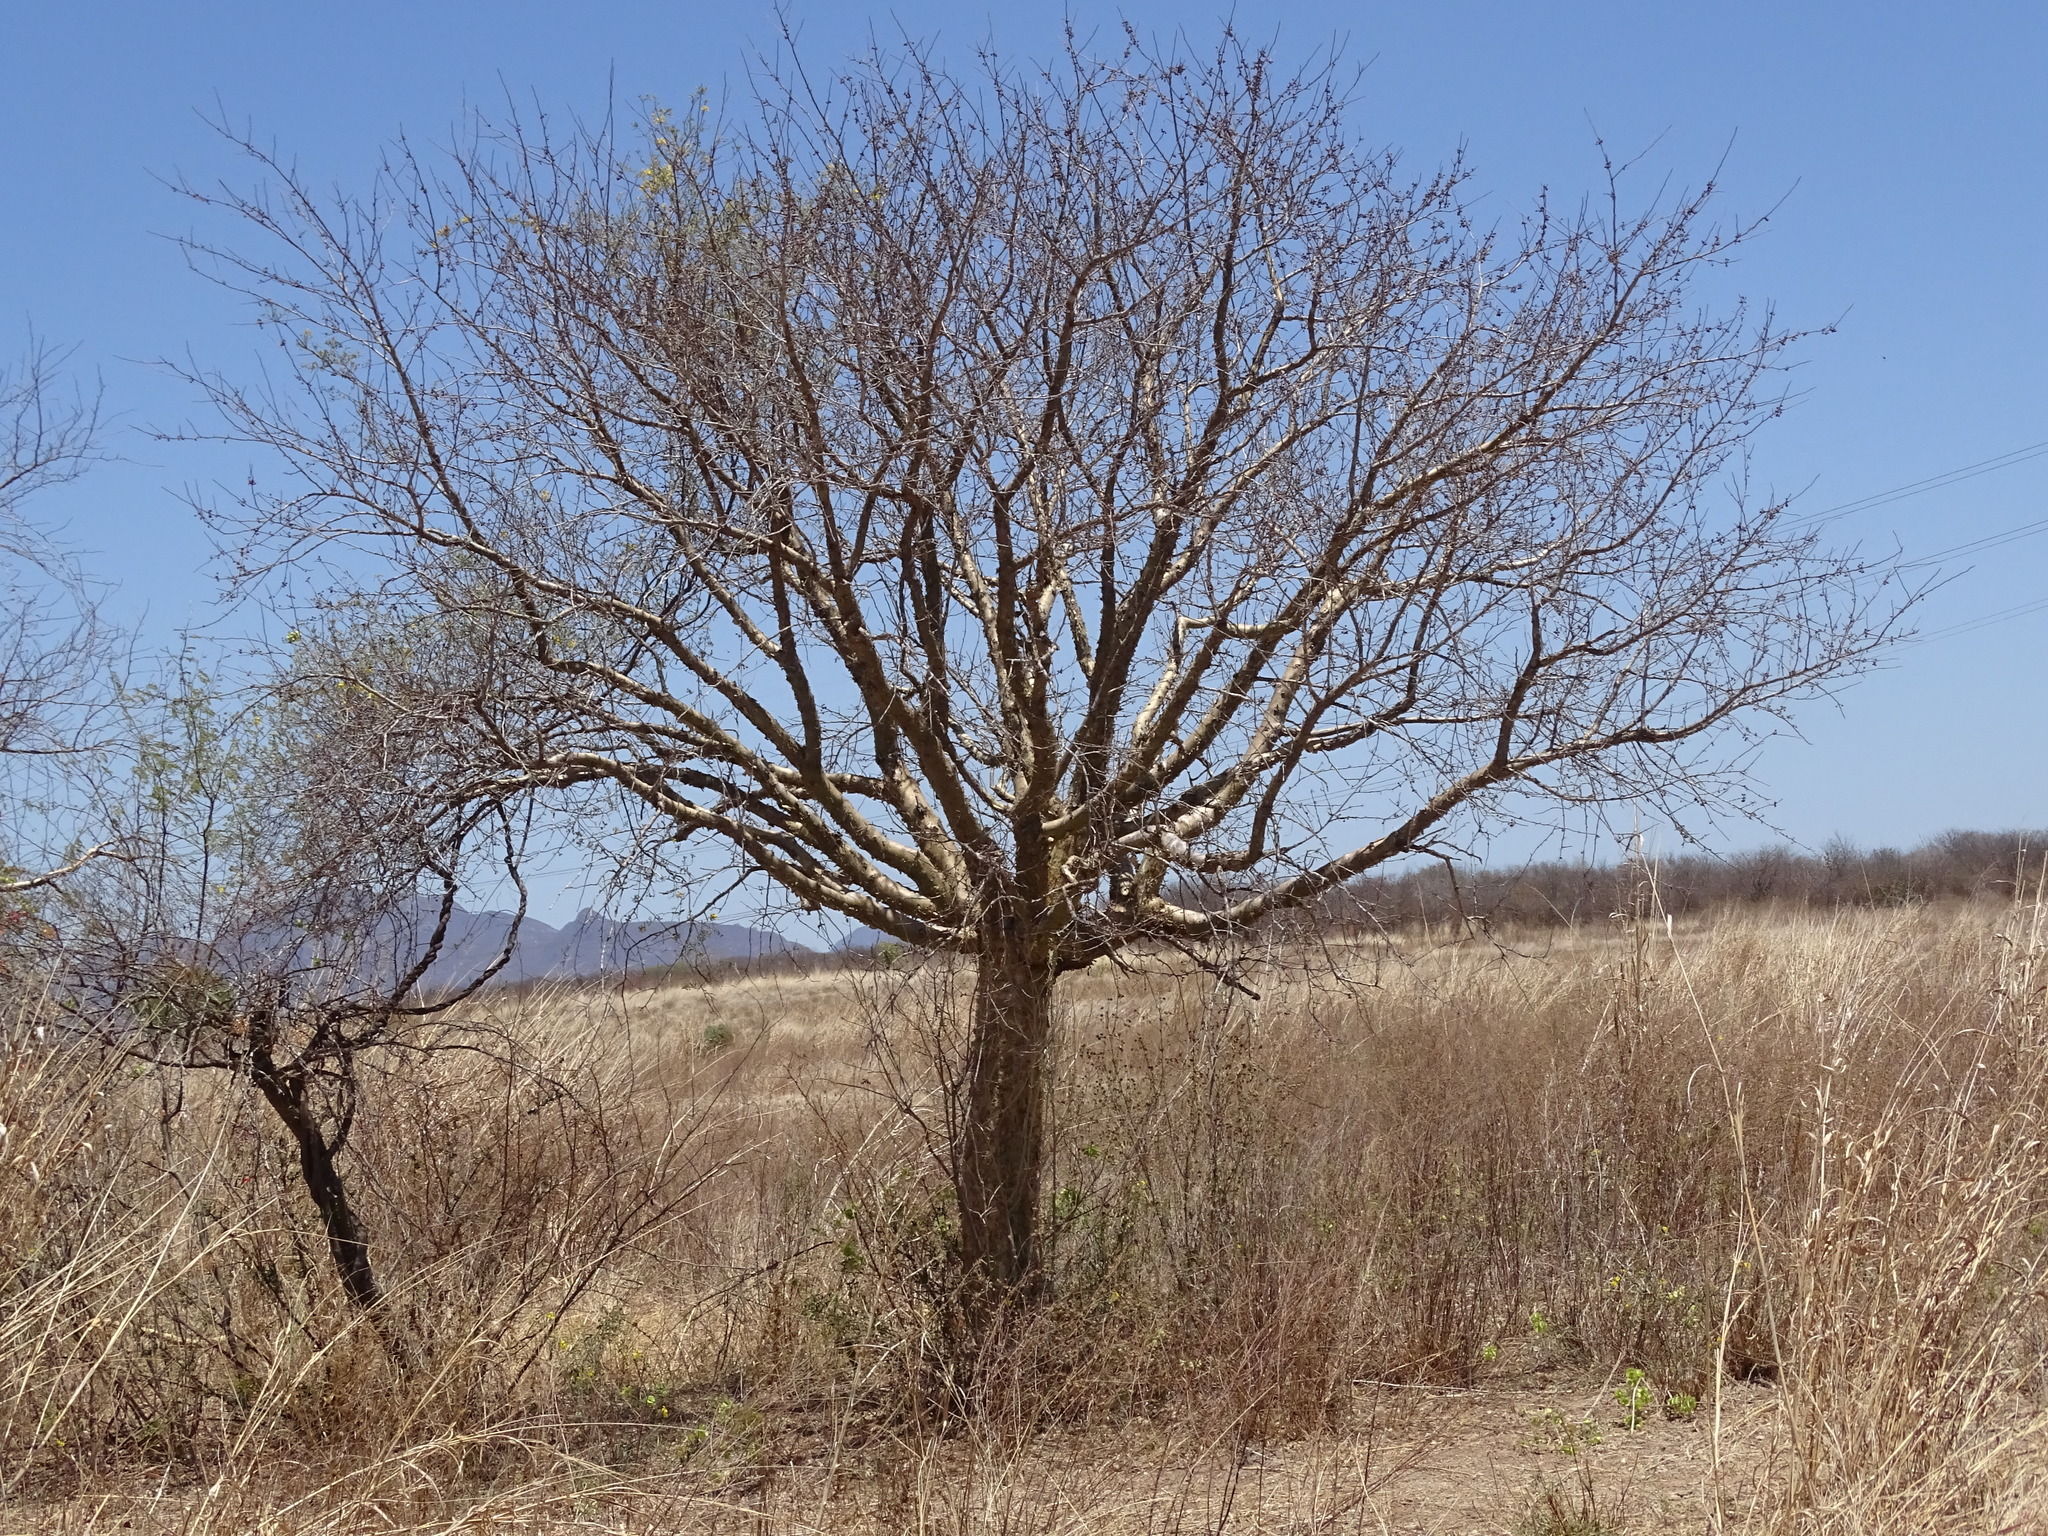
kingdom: Plantae
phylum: Tracheophyta
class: Magnoliopsida
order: Sapindales
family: Burseraceae
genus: Bursera
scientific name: Bursera fagaroides
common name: Elephant tree
